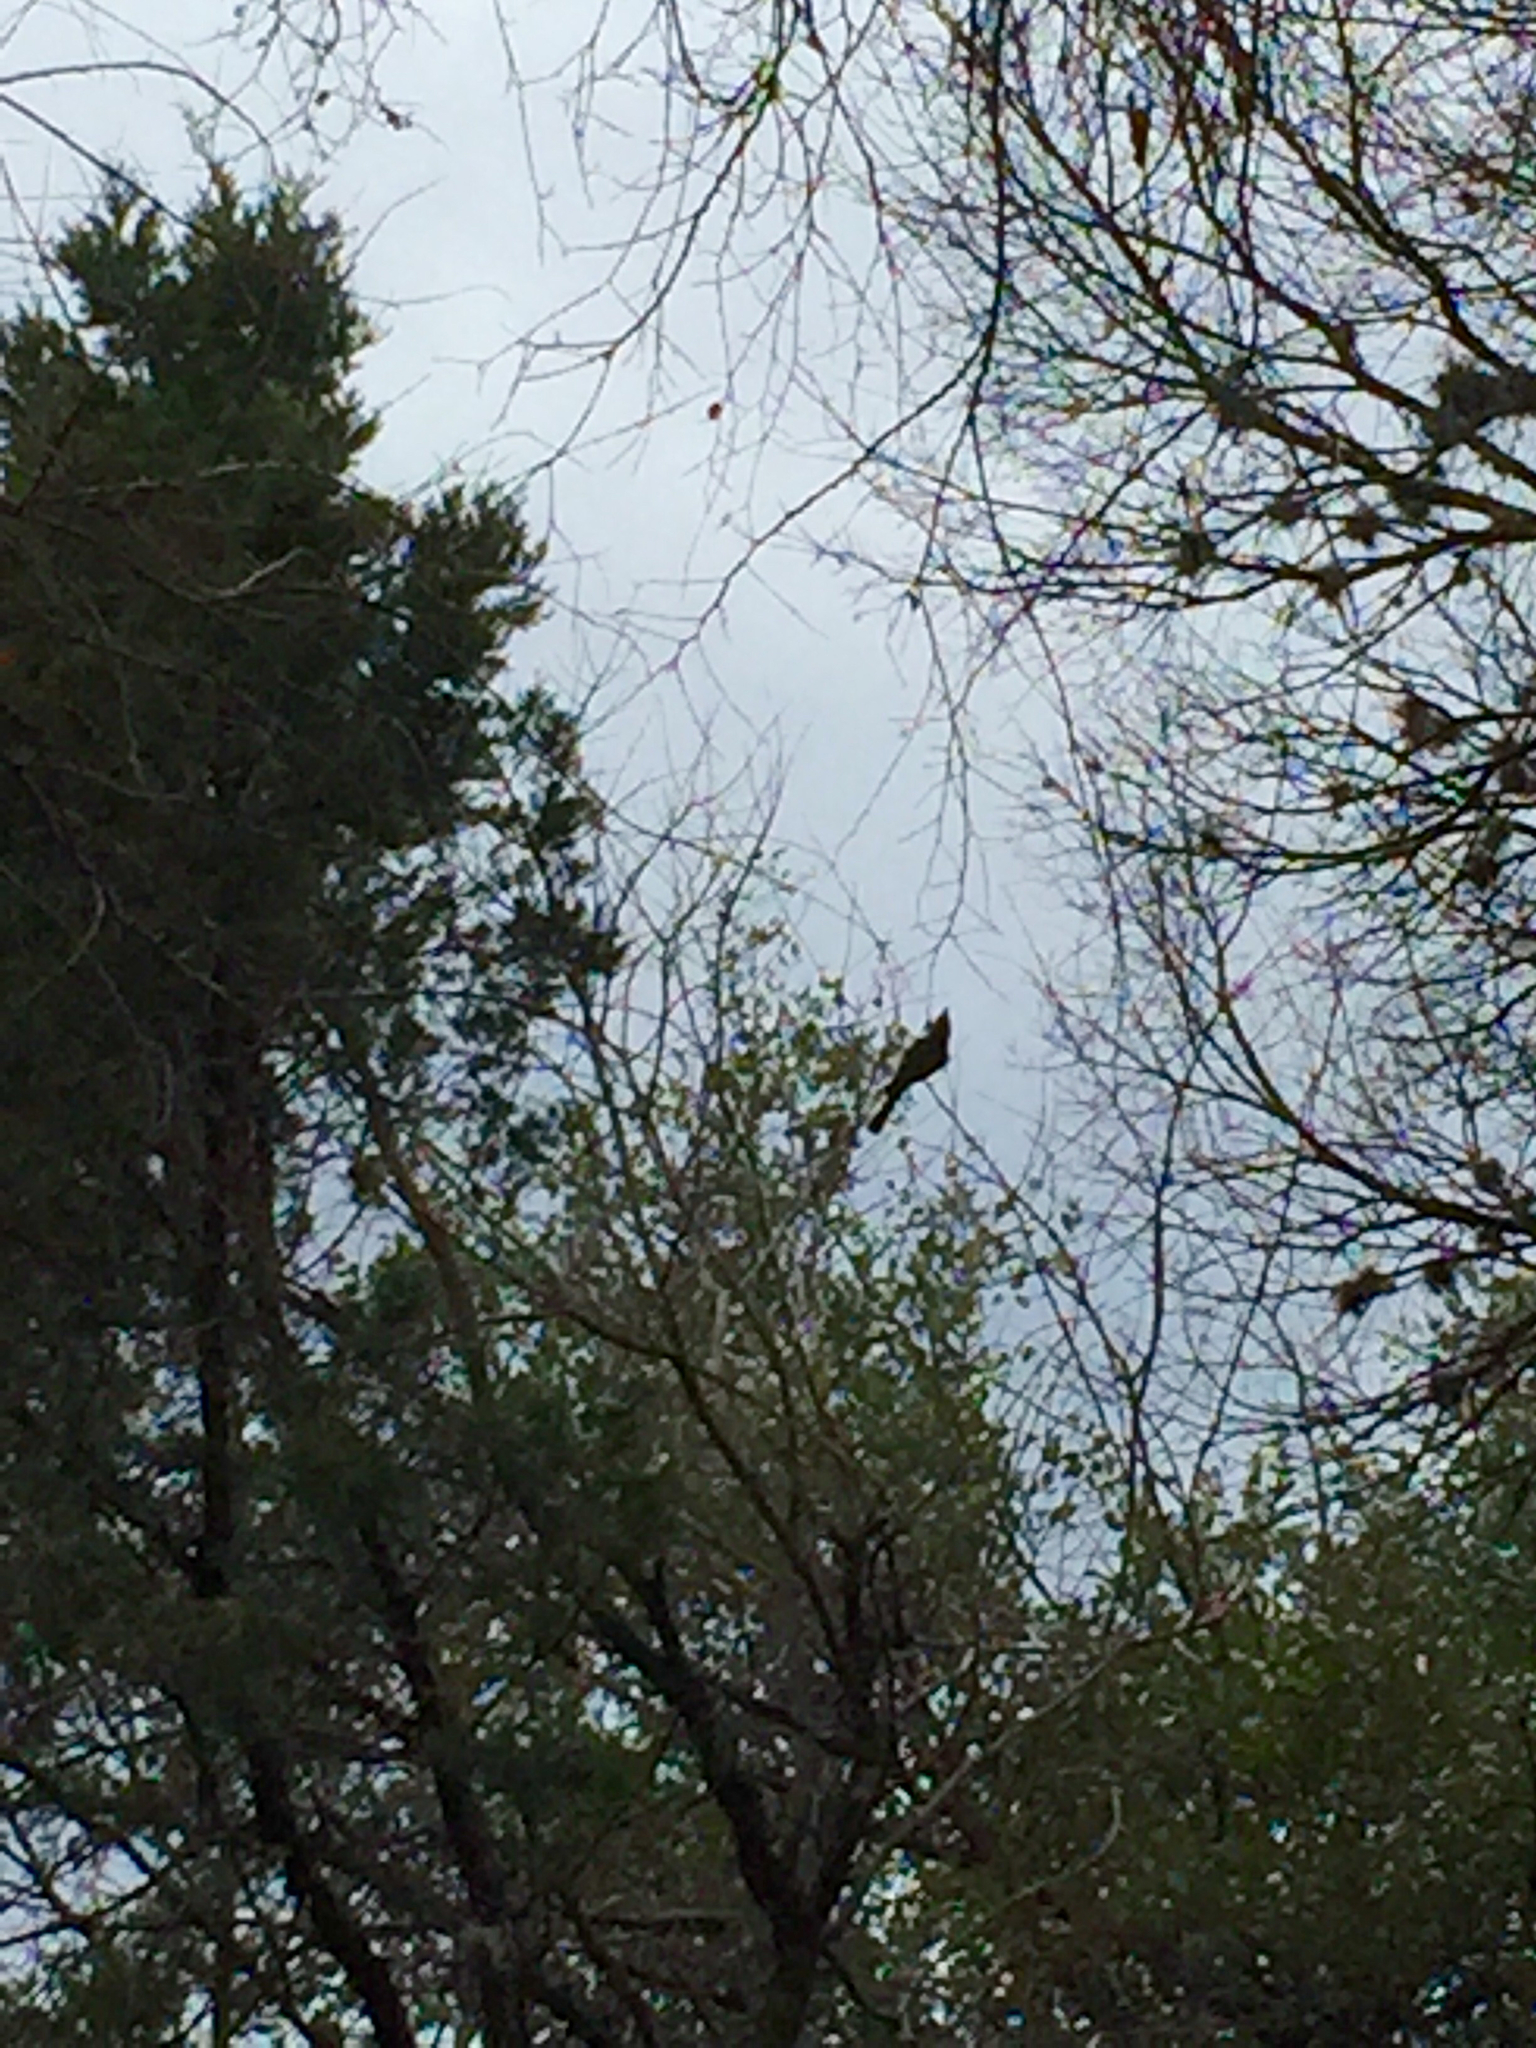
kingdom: Animalia
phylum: Chordata
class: Aves
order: Passeriformes
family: Paridae
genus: Baeolophus
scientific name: Baeolophus atricristatus
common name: Black-crested titmouse
